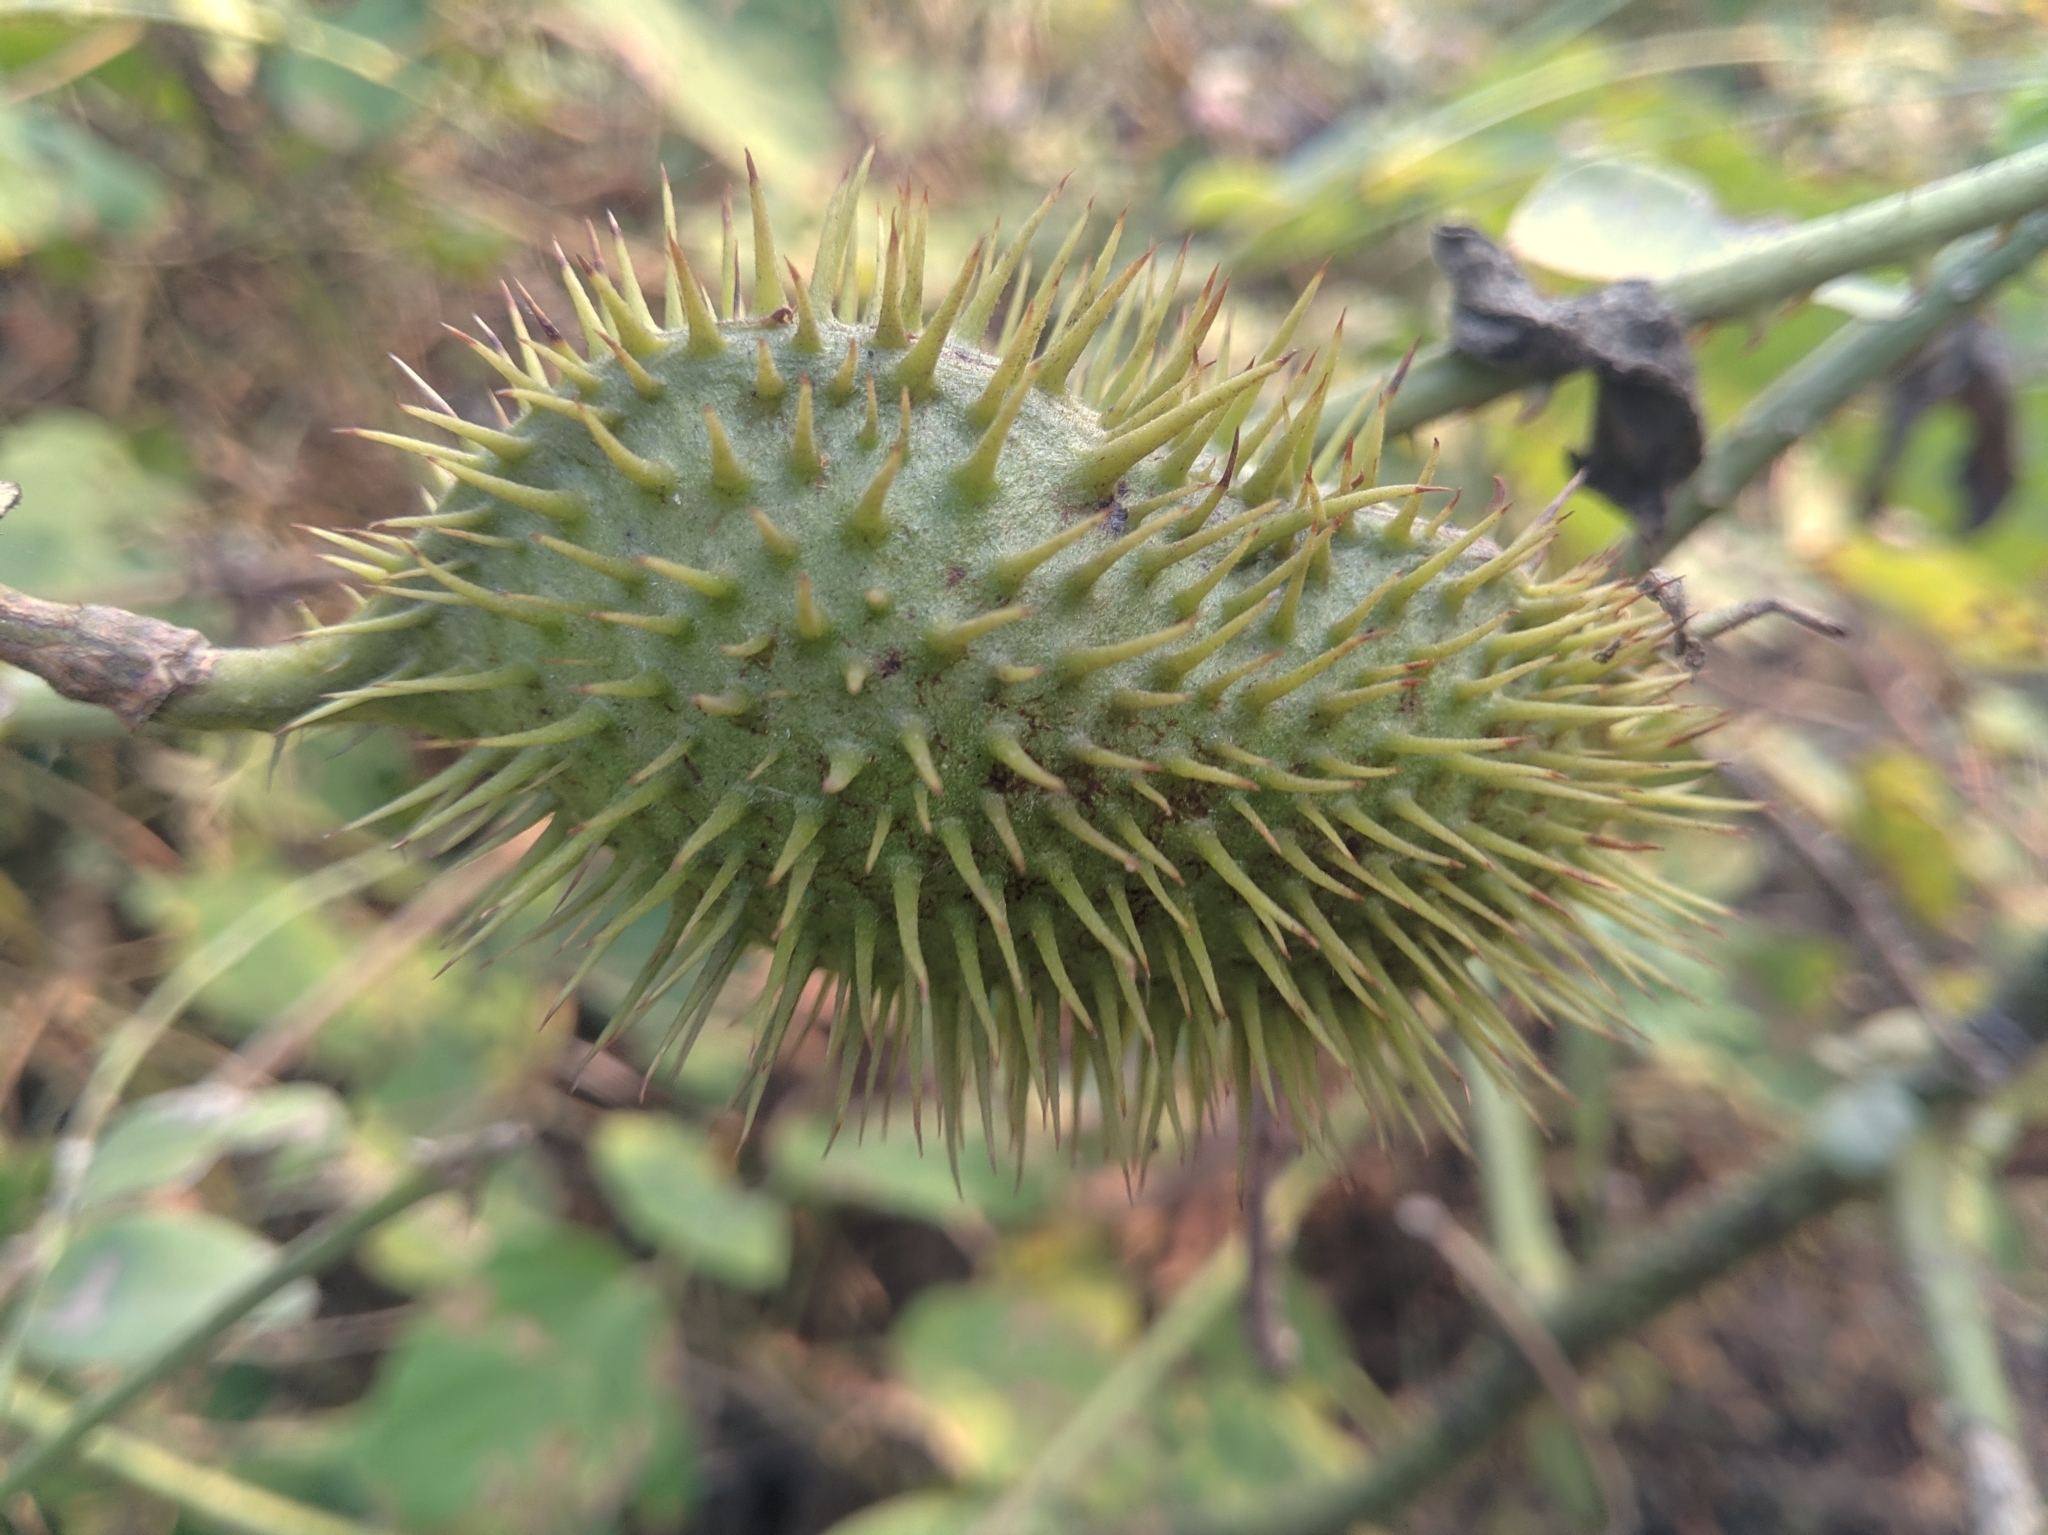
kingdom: Plantae
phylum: Tracheophyta
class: Magnoliopsida
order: Fabales
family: Fabaceae
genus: Guilandina
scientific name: Guilandina bonduc
